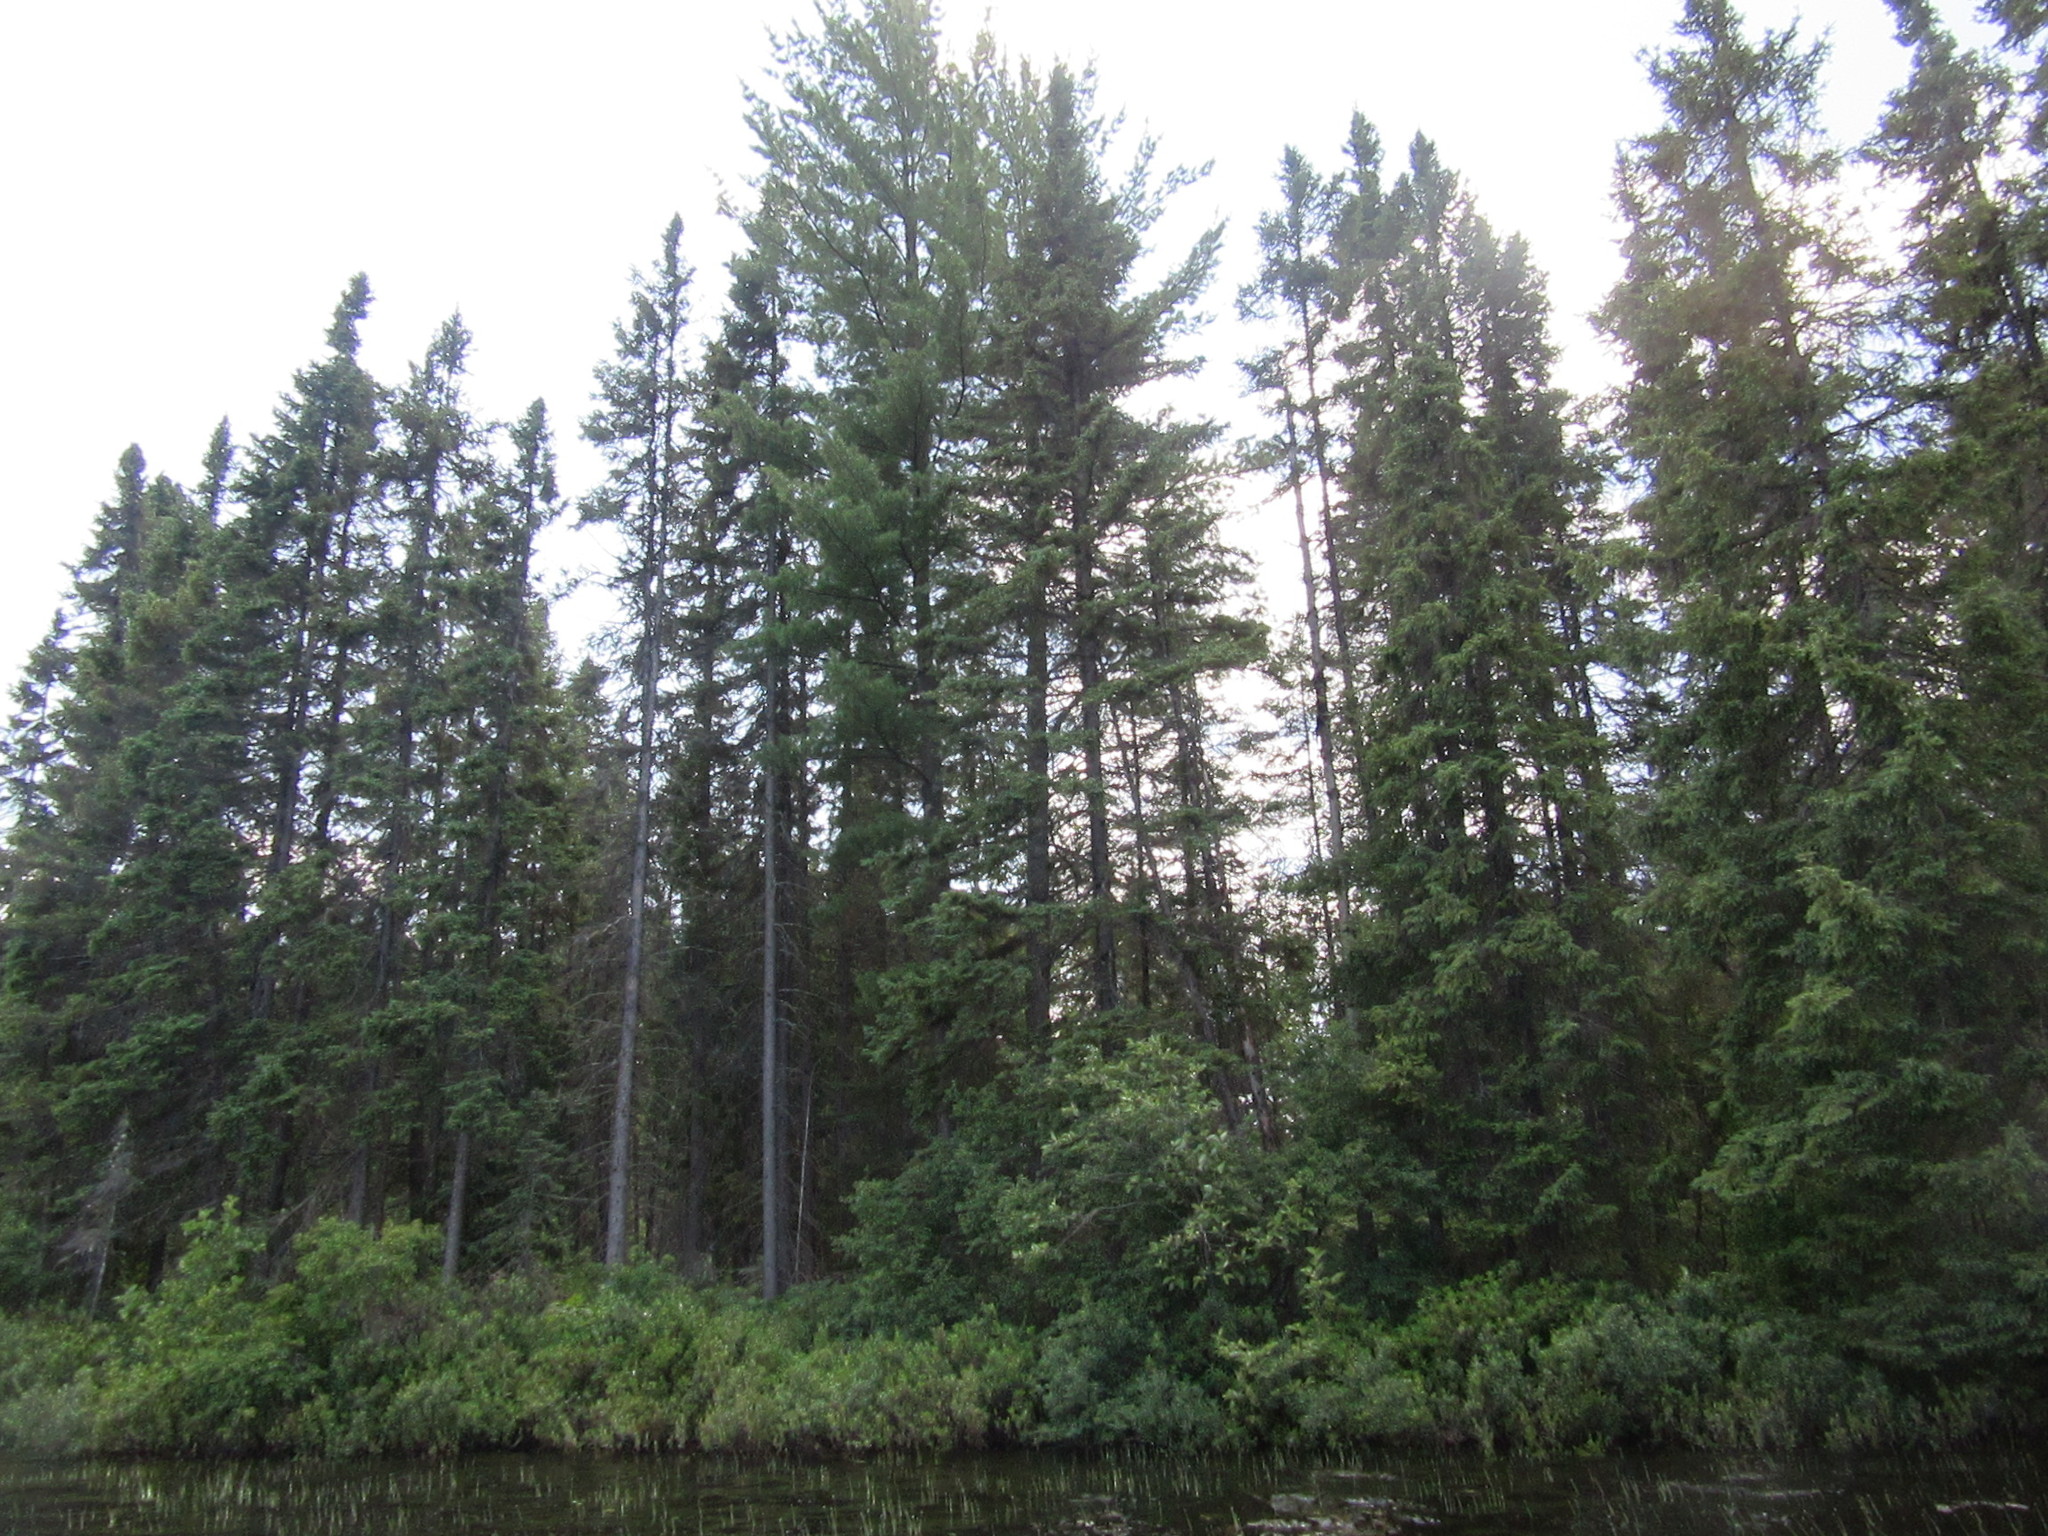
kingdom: Plantae
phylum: Tracheophyta
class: Pinopsida
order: Pinales
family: Pinaceae
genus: Pinus
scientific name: Pinus strobus
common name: Weymouth pine
